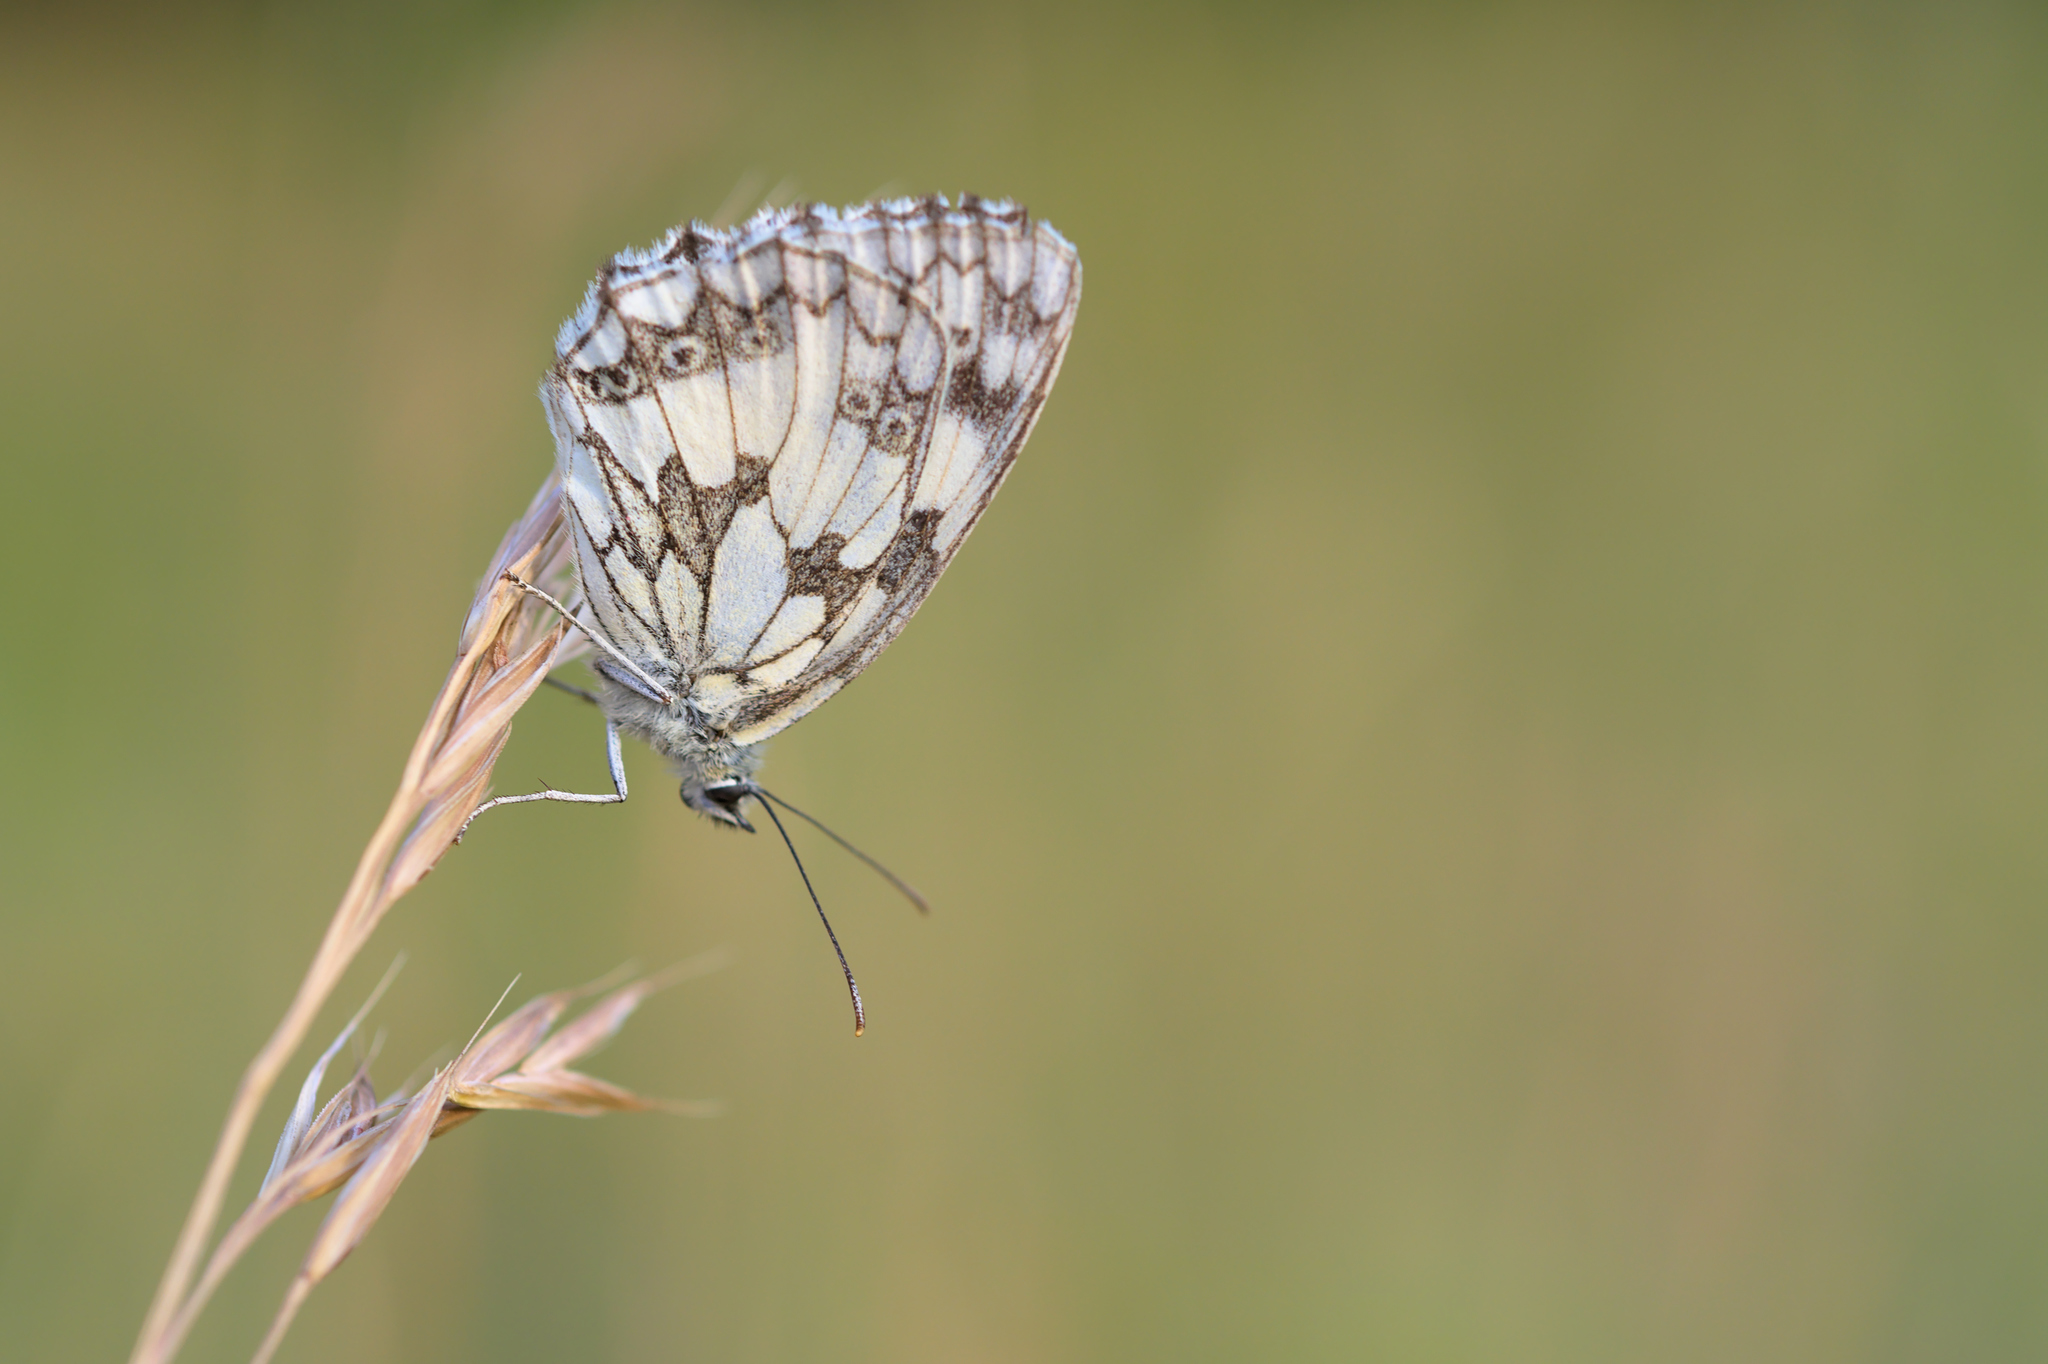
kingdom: Animalia
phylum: Arthropoda
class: Insecta
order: Lepidoptera
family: Nymphalidae
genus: Melanargia
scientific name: Melanargia galathea
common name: Marbled white
